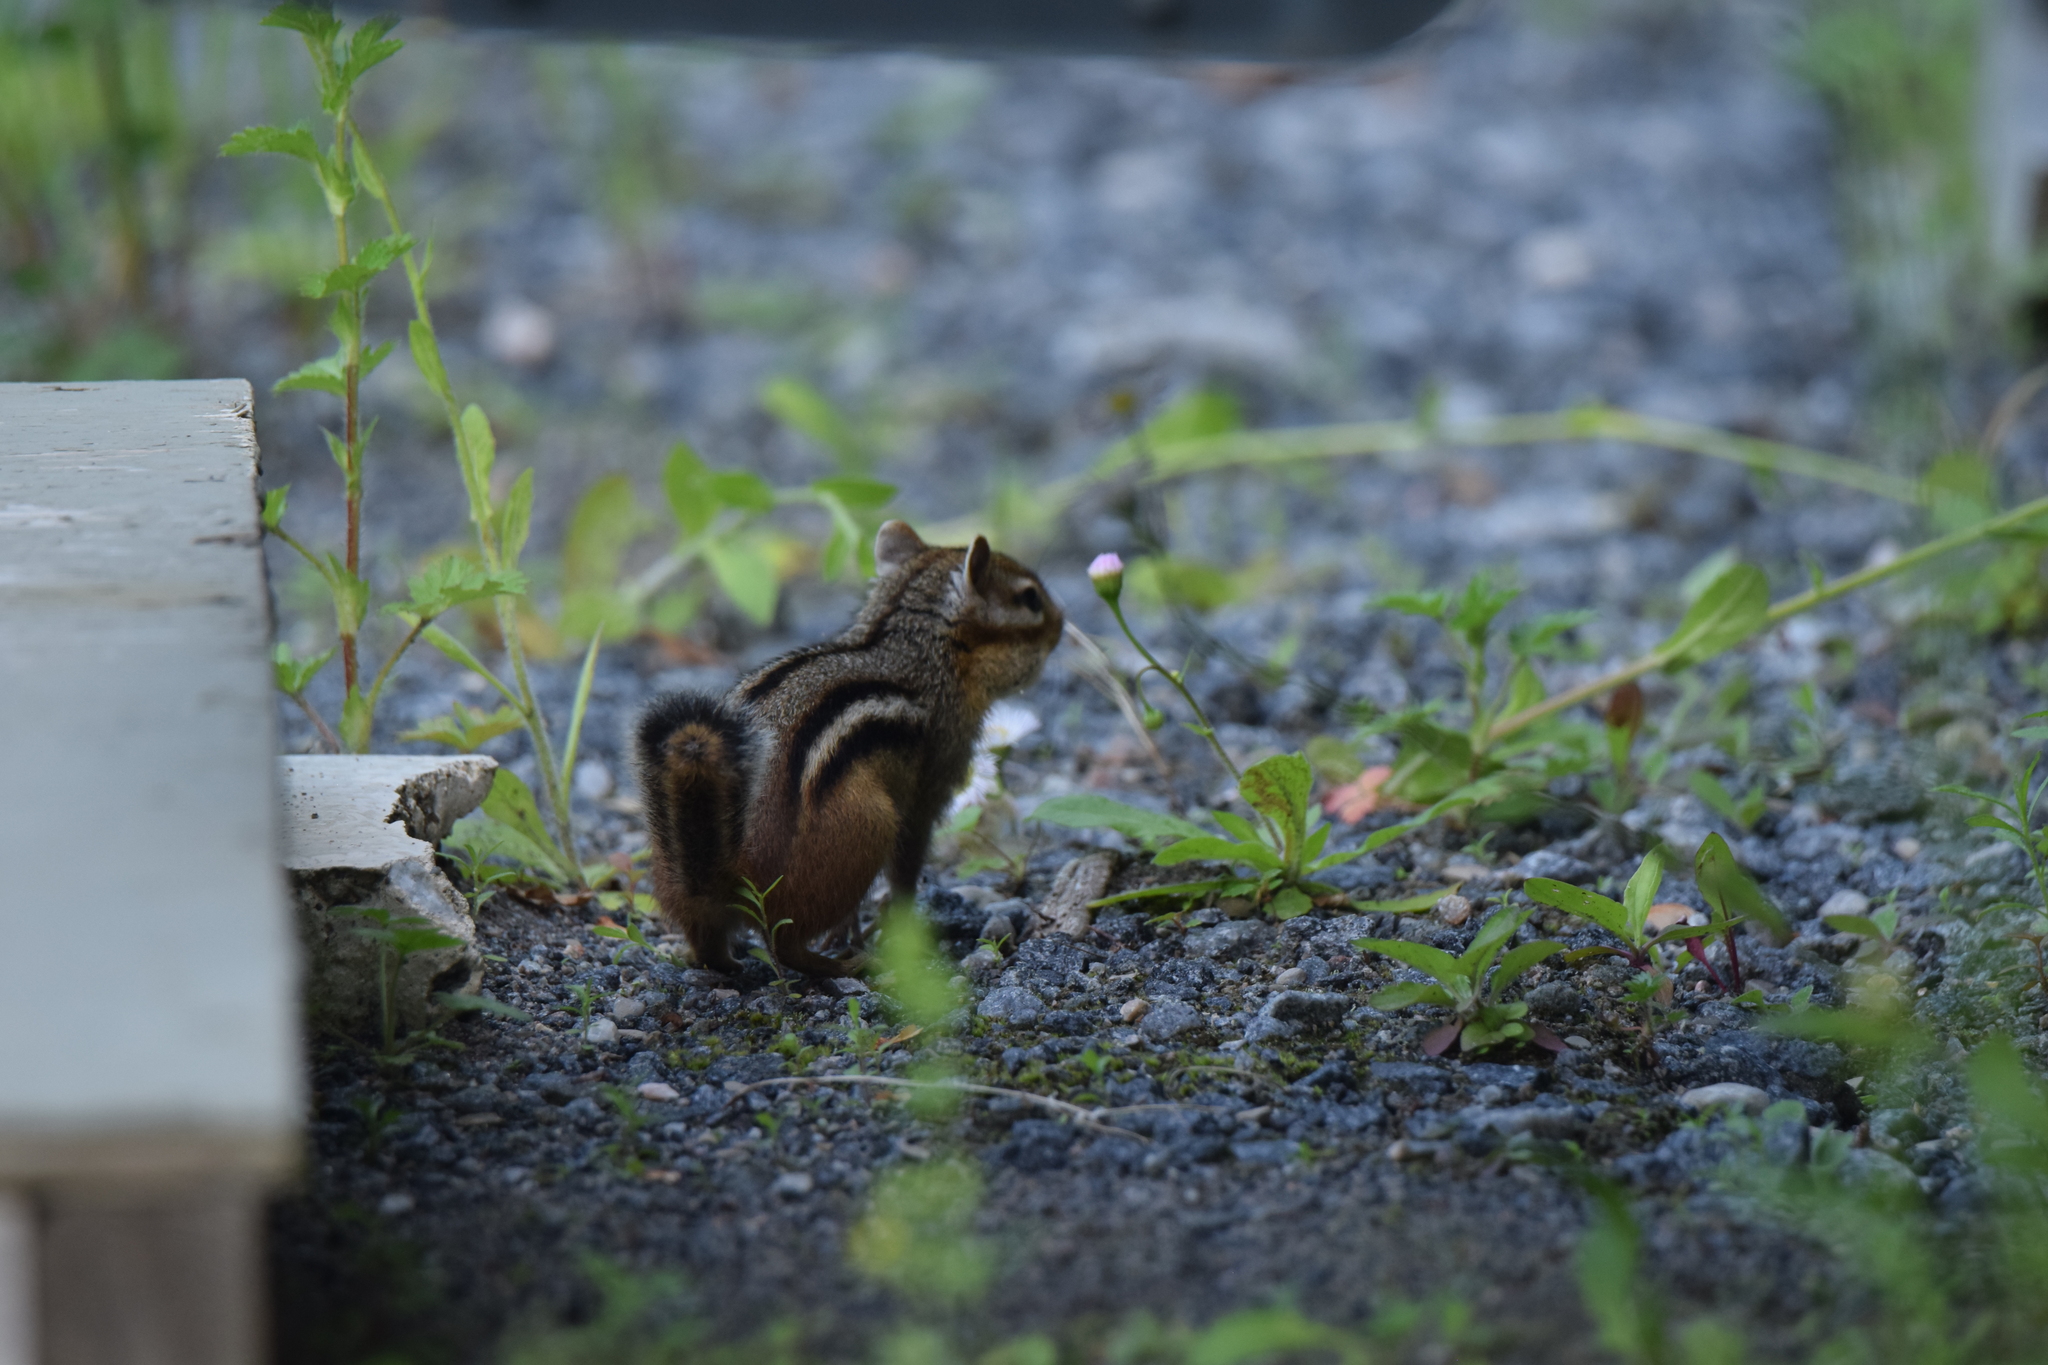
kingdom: Animalia
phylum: Chordata
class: Mammalia
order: Rodentia
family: Sciuridae
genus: Tamias
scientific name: Tamias striatus
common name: Eastern chipmunk
